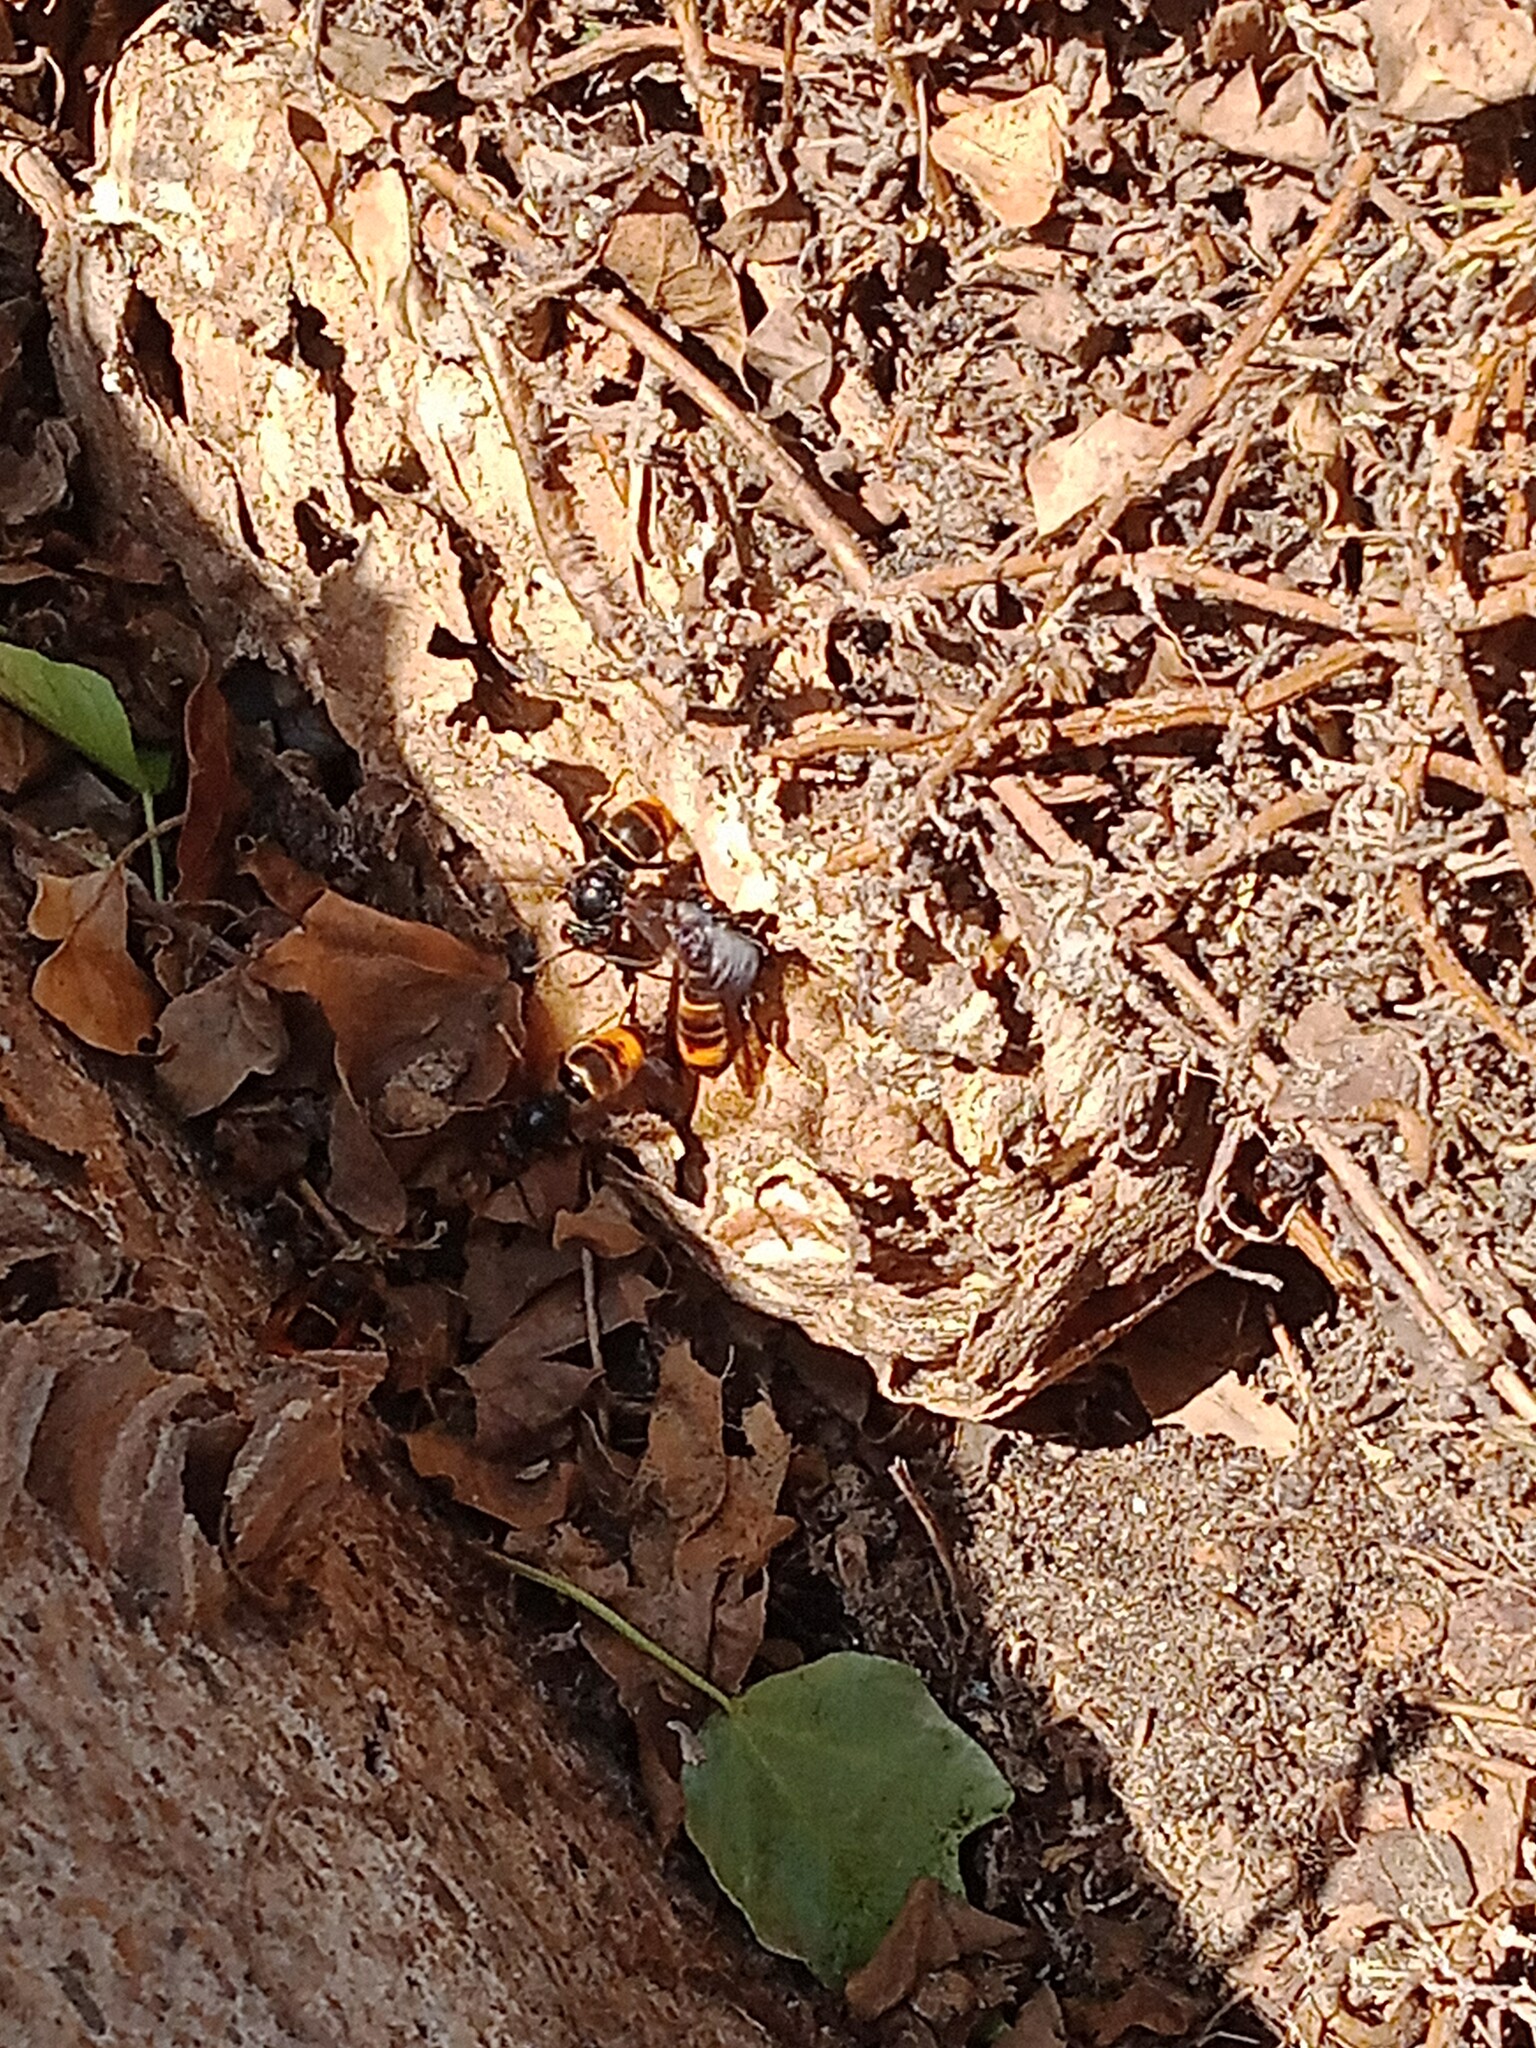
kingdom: Animalia
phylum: Arthropoda
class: Insecta
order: Hymenoptera
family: Vespidae
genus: Vespa
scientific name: Vespa velutina
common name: Asian hornet
